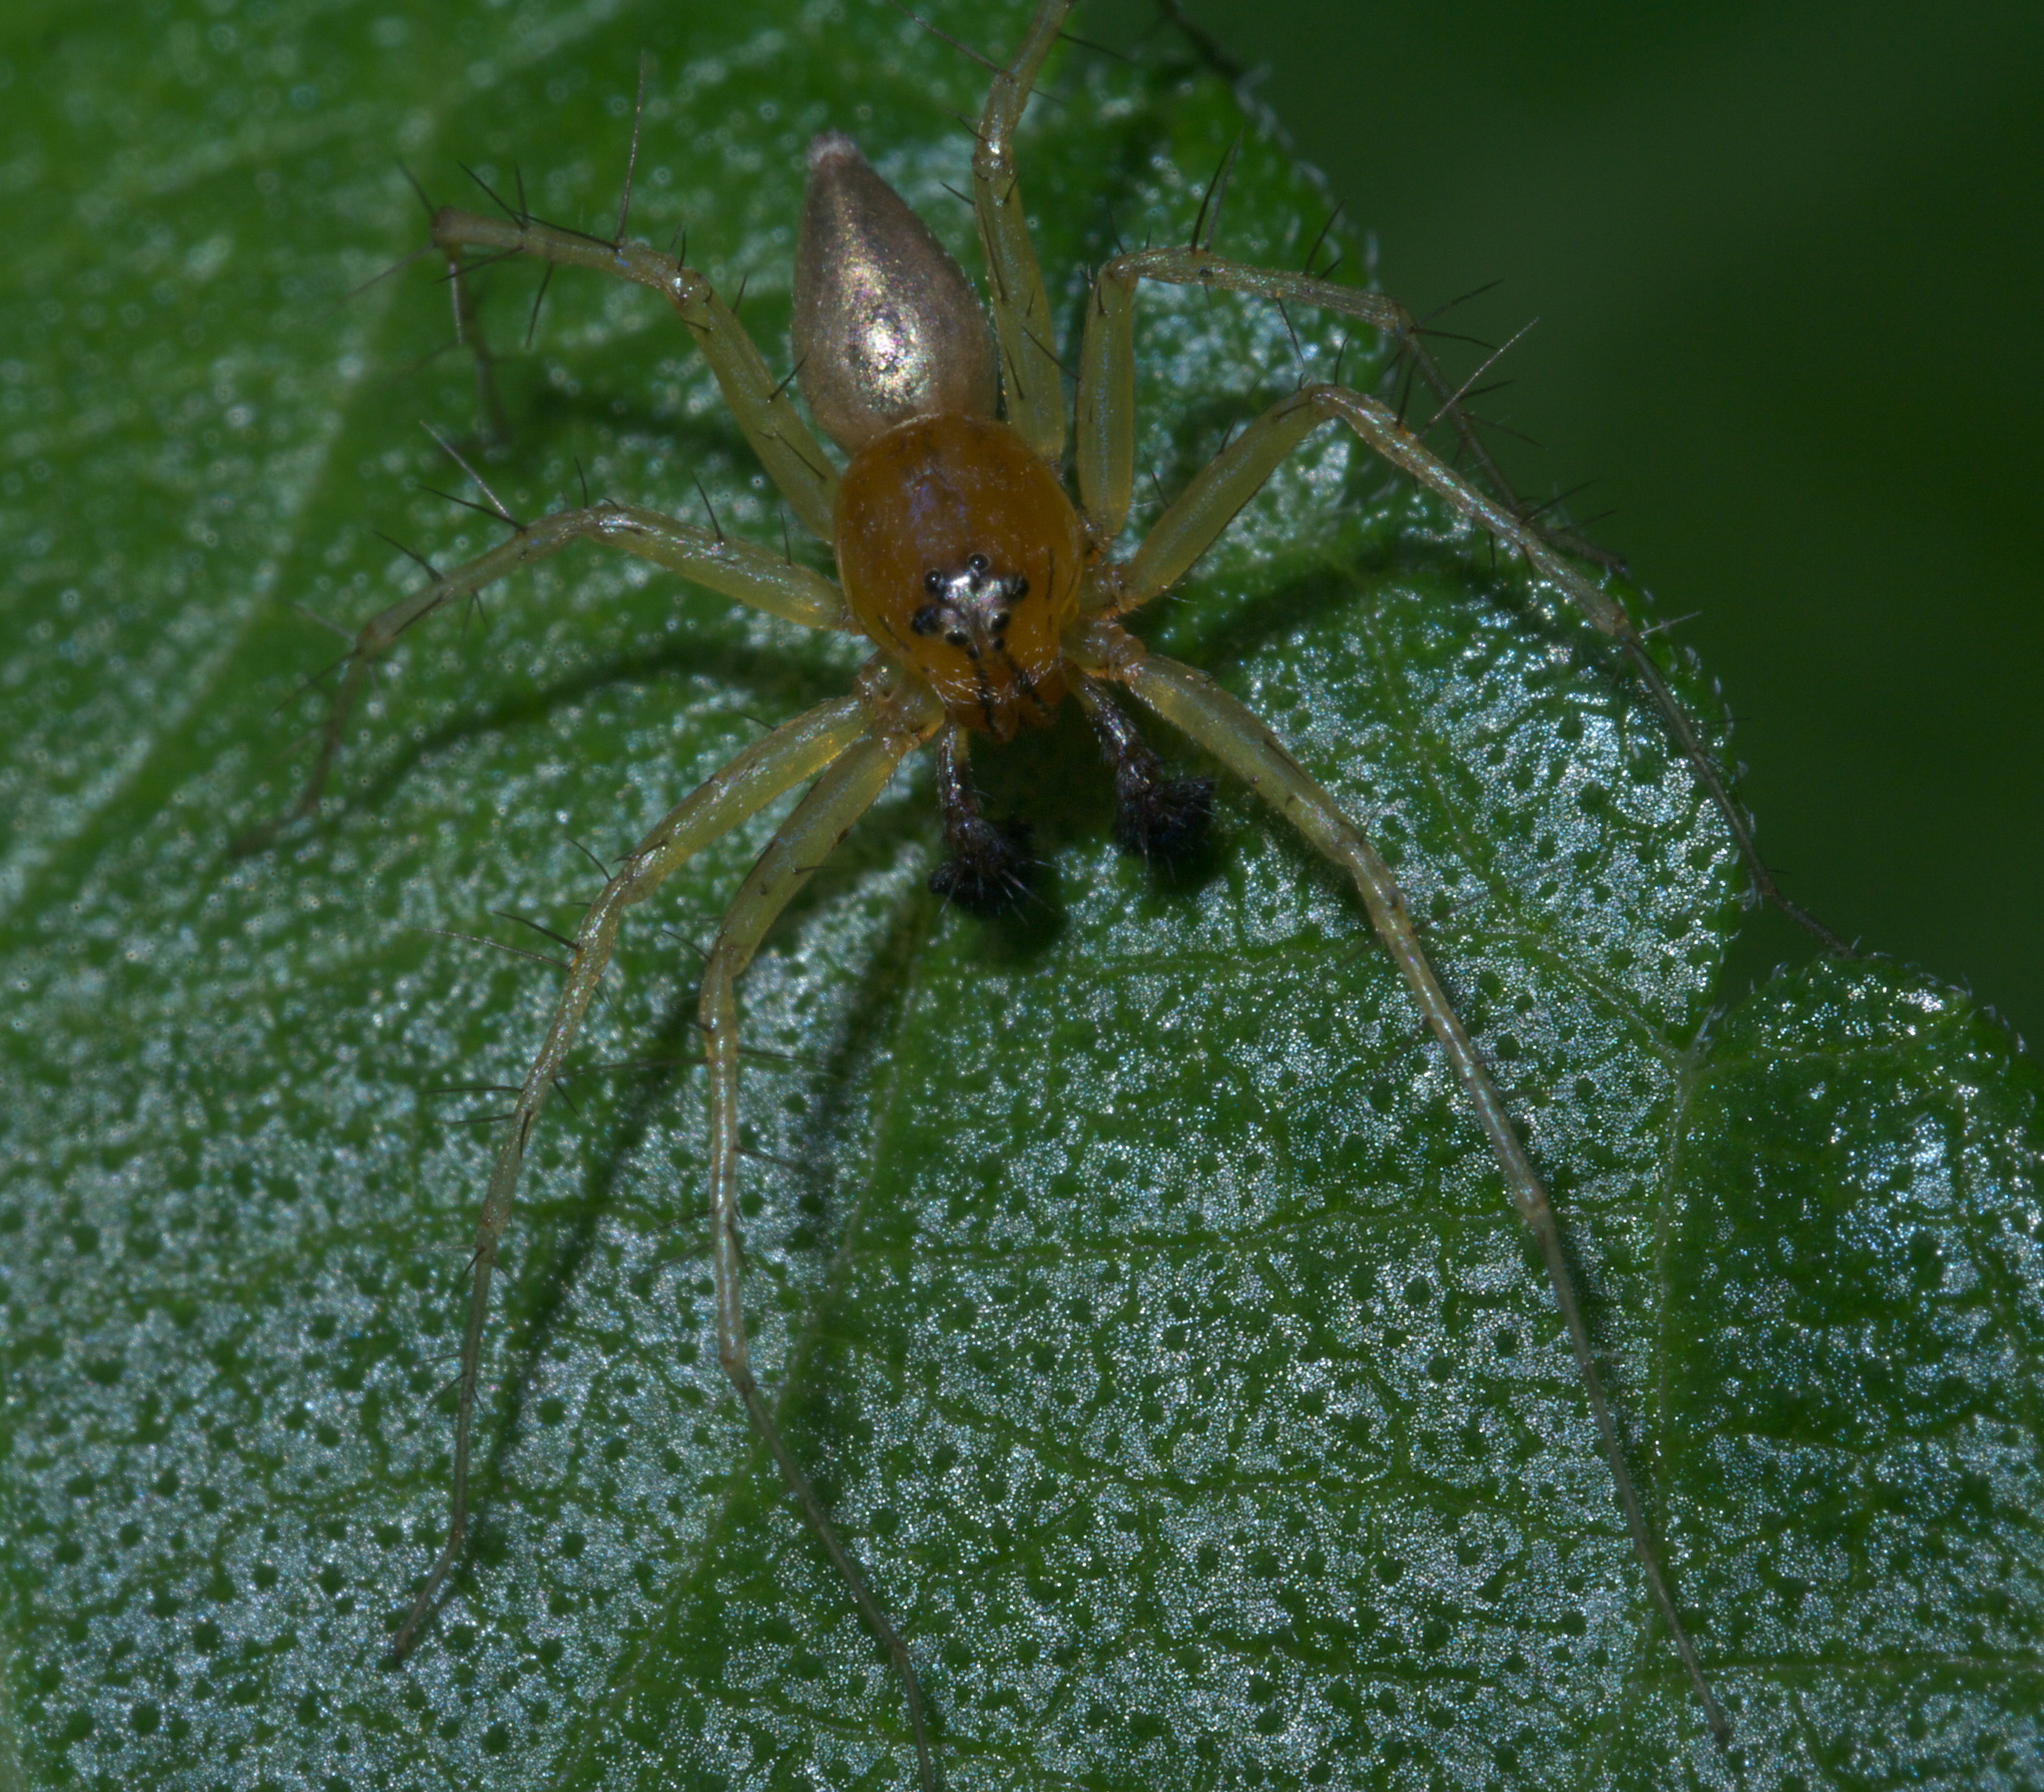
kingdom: Animalia
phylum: Arthropoda
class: Arachnida
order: Araneae
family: Oxyopidae
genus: Oxyopes
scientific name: Oxyopes salticus
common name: Lynx spiders
